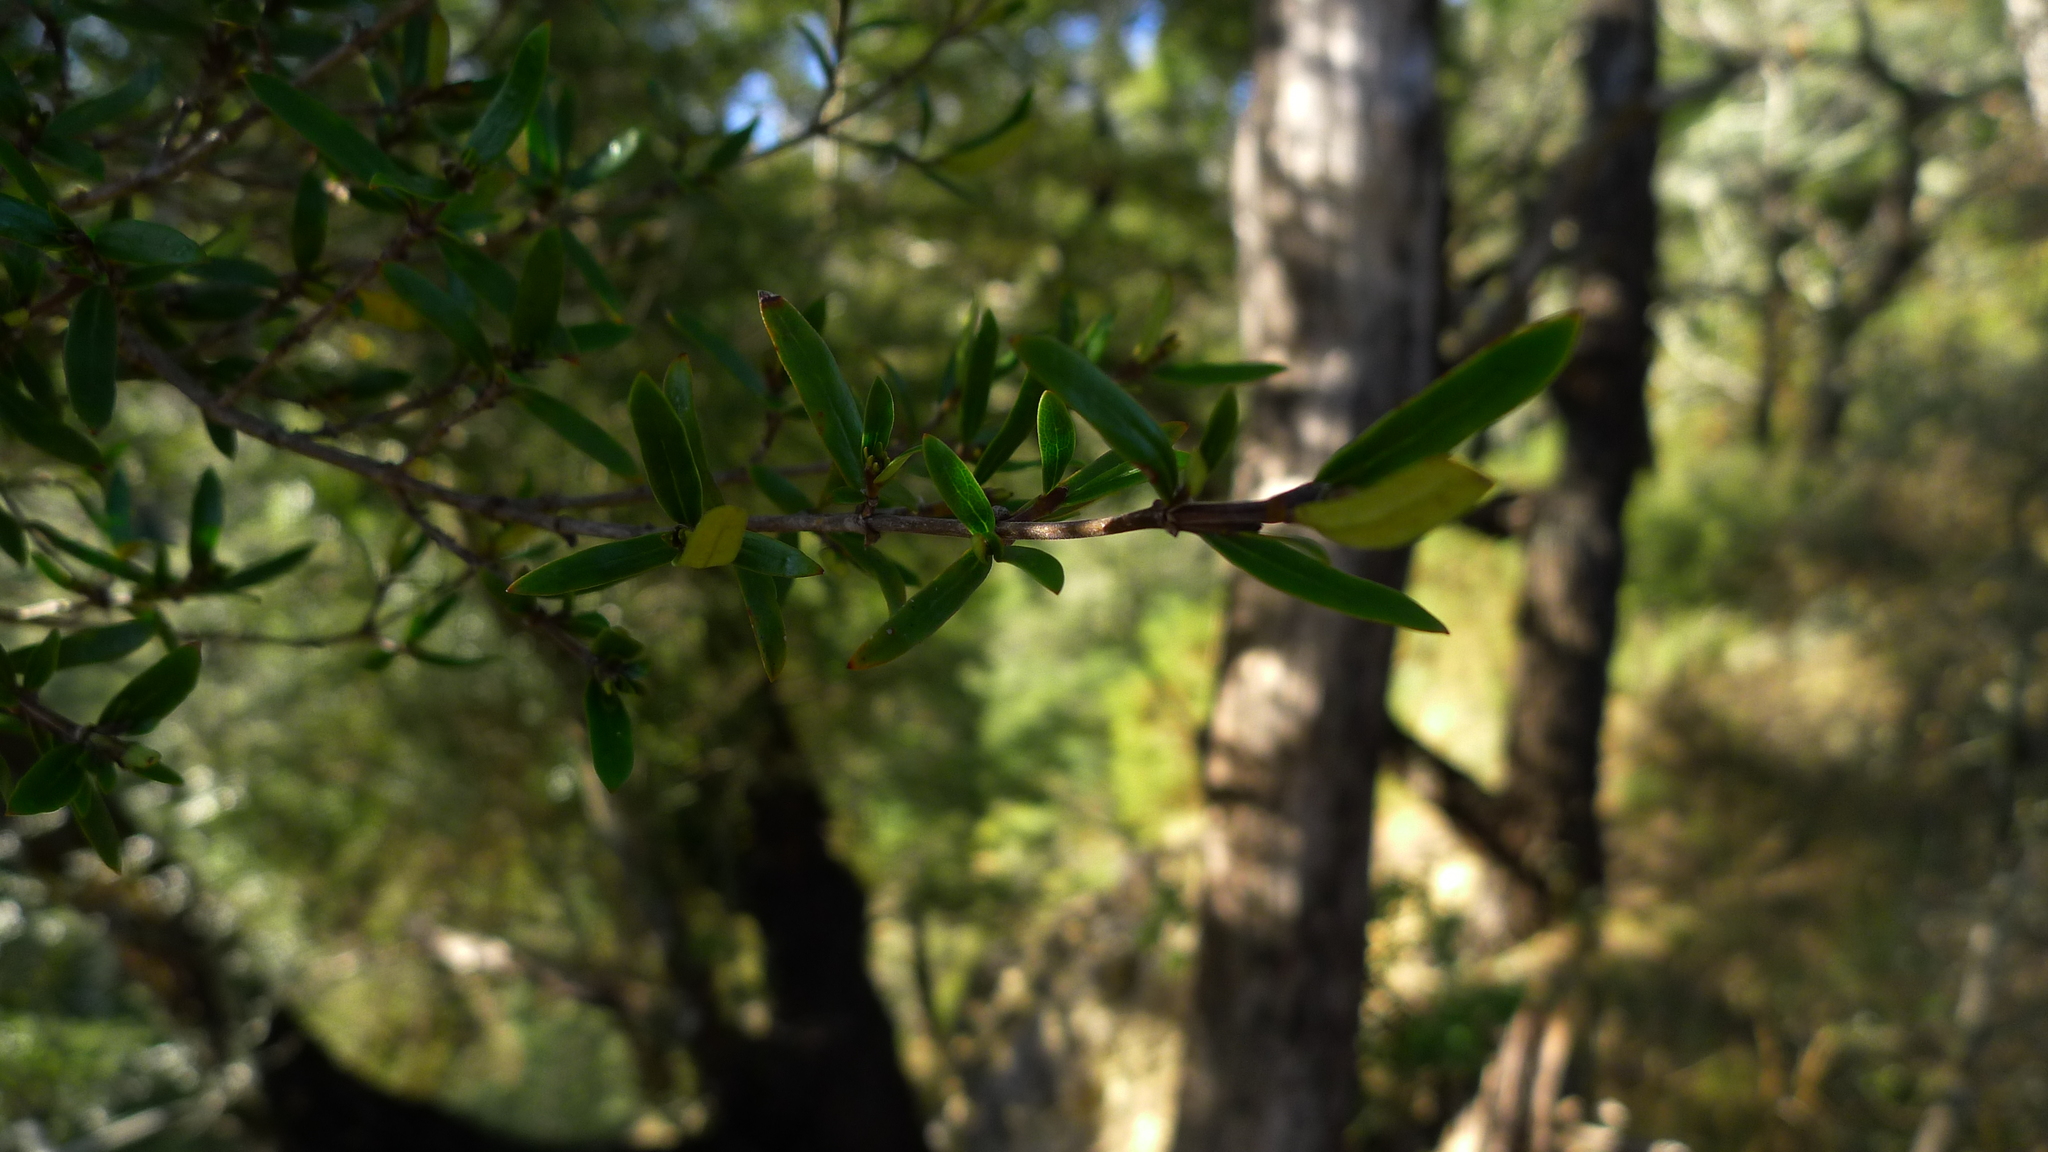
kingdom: Plantae
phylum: Tracheophyta
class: Magnoliopsida
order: Gentianales
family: Rubiaceae
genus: Coprosma
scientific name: Coprosma linariifolia
